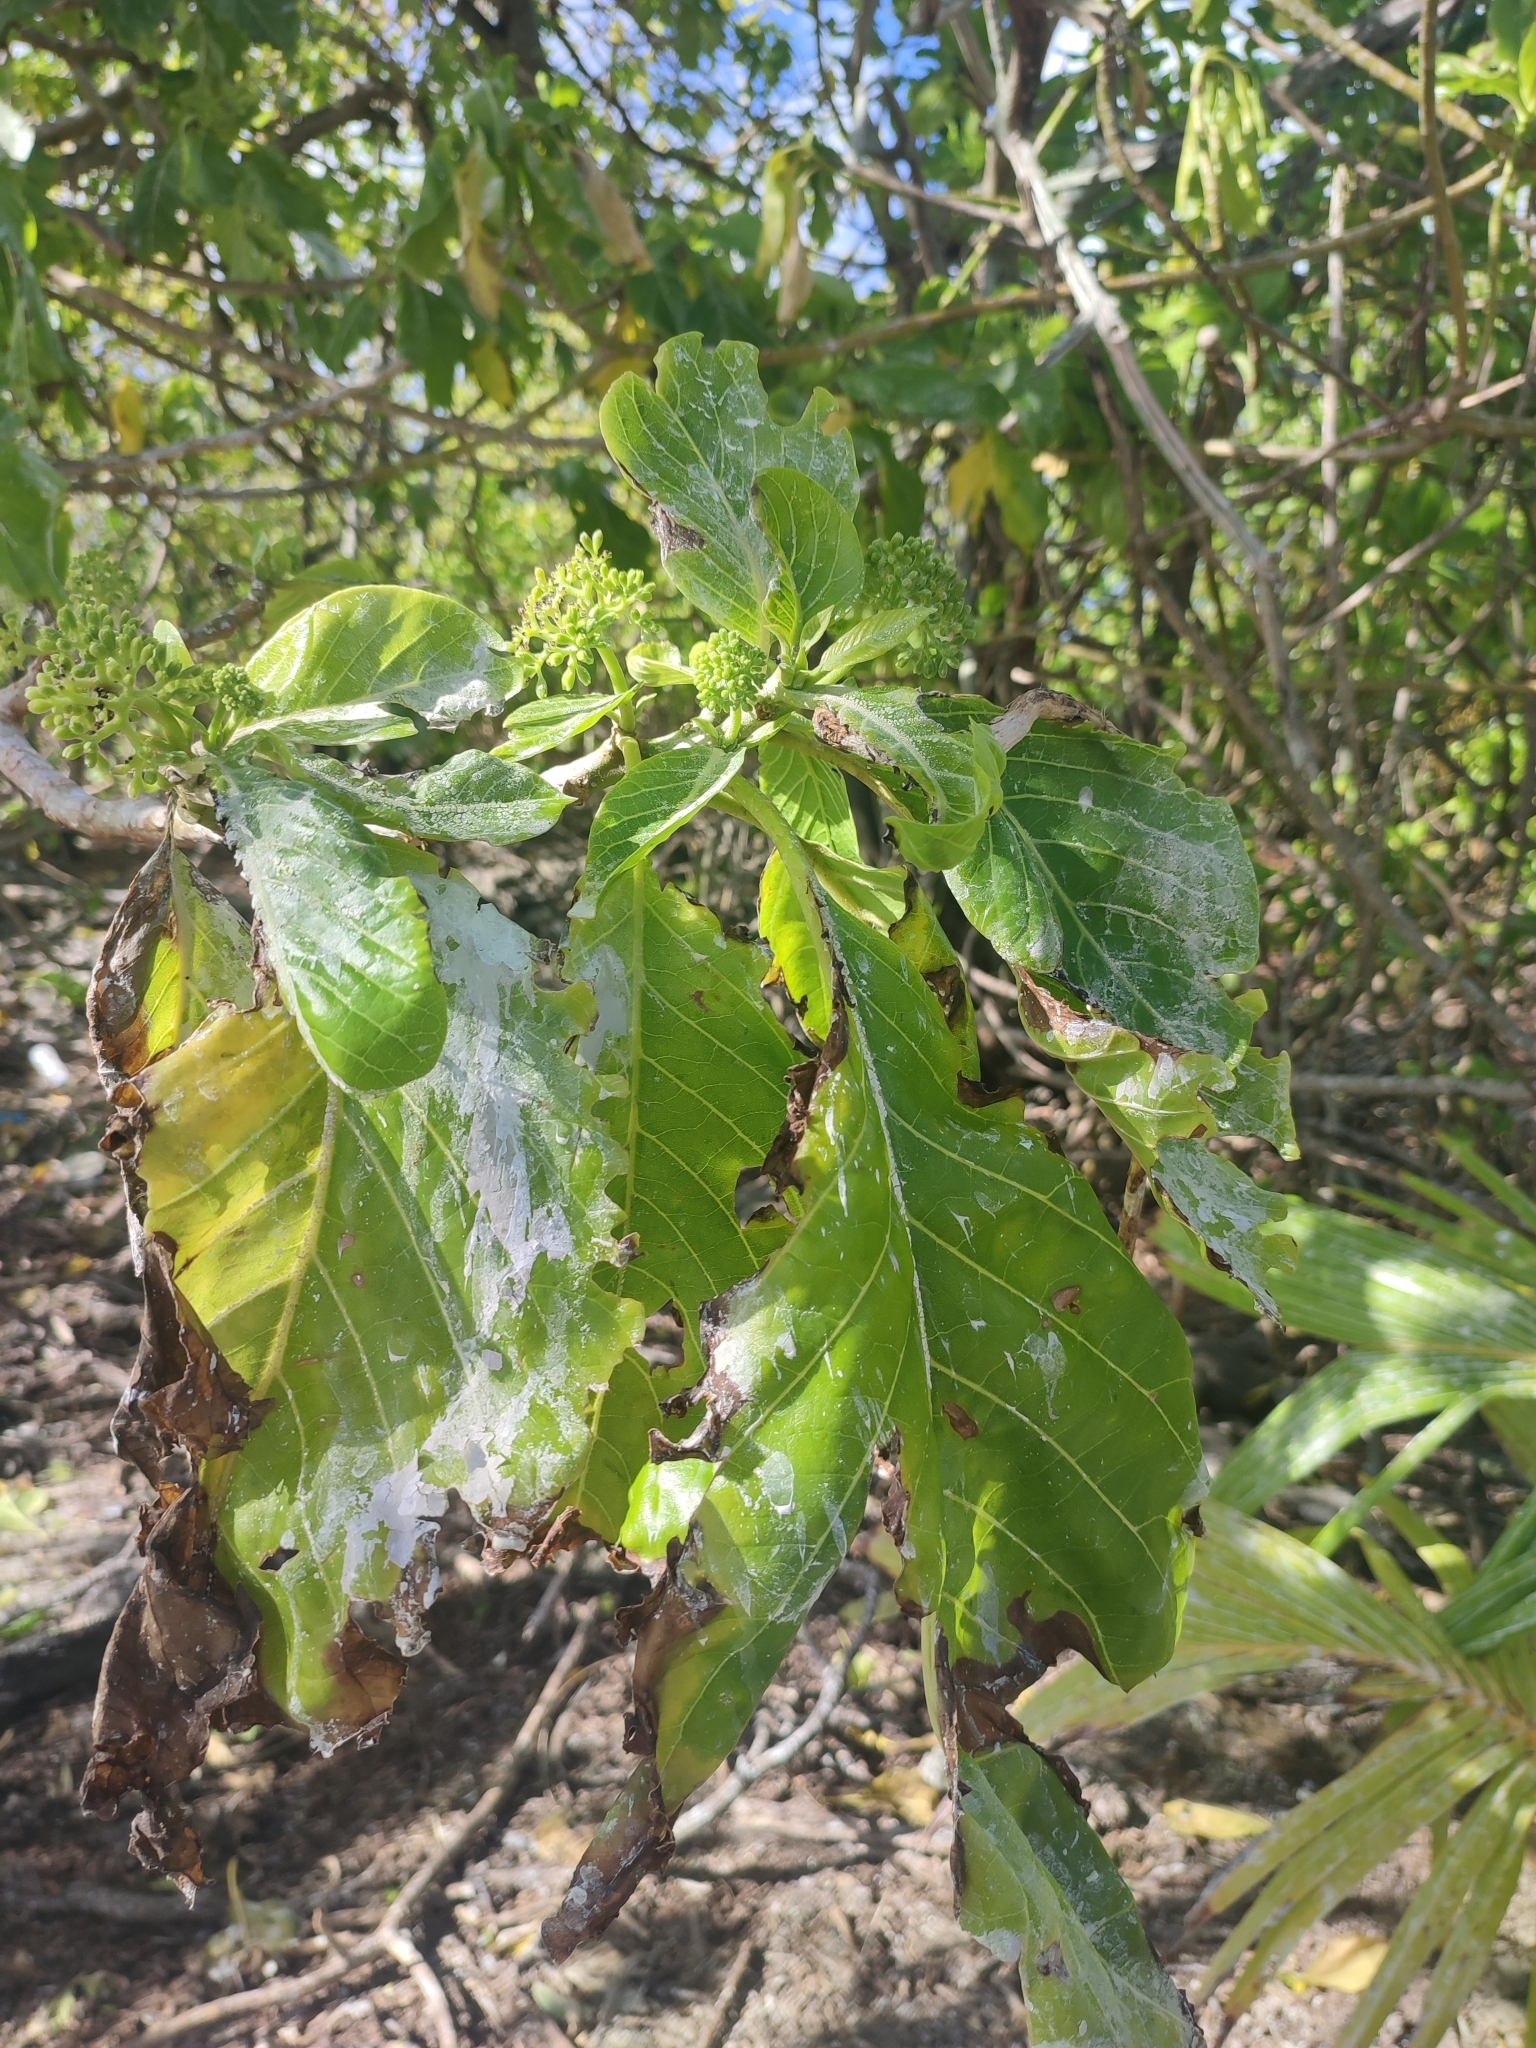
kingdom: Plantae
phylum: Tracheophyta
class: Magnoliopsida
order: Caryophyllales
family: Nyctaginaceae
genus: Ceodes
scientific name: Ceodes
